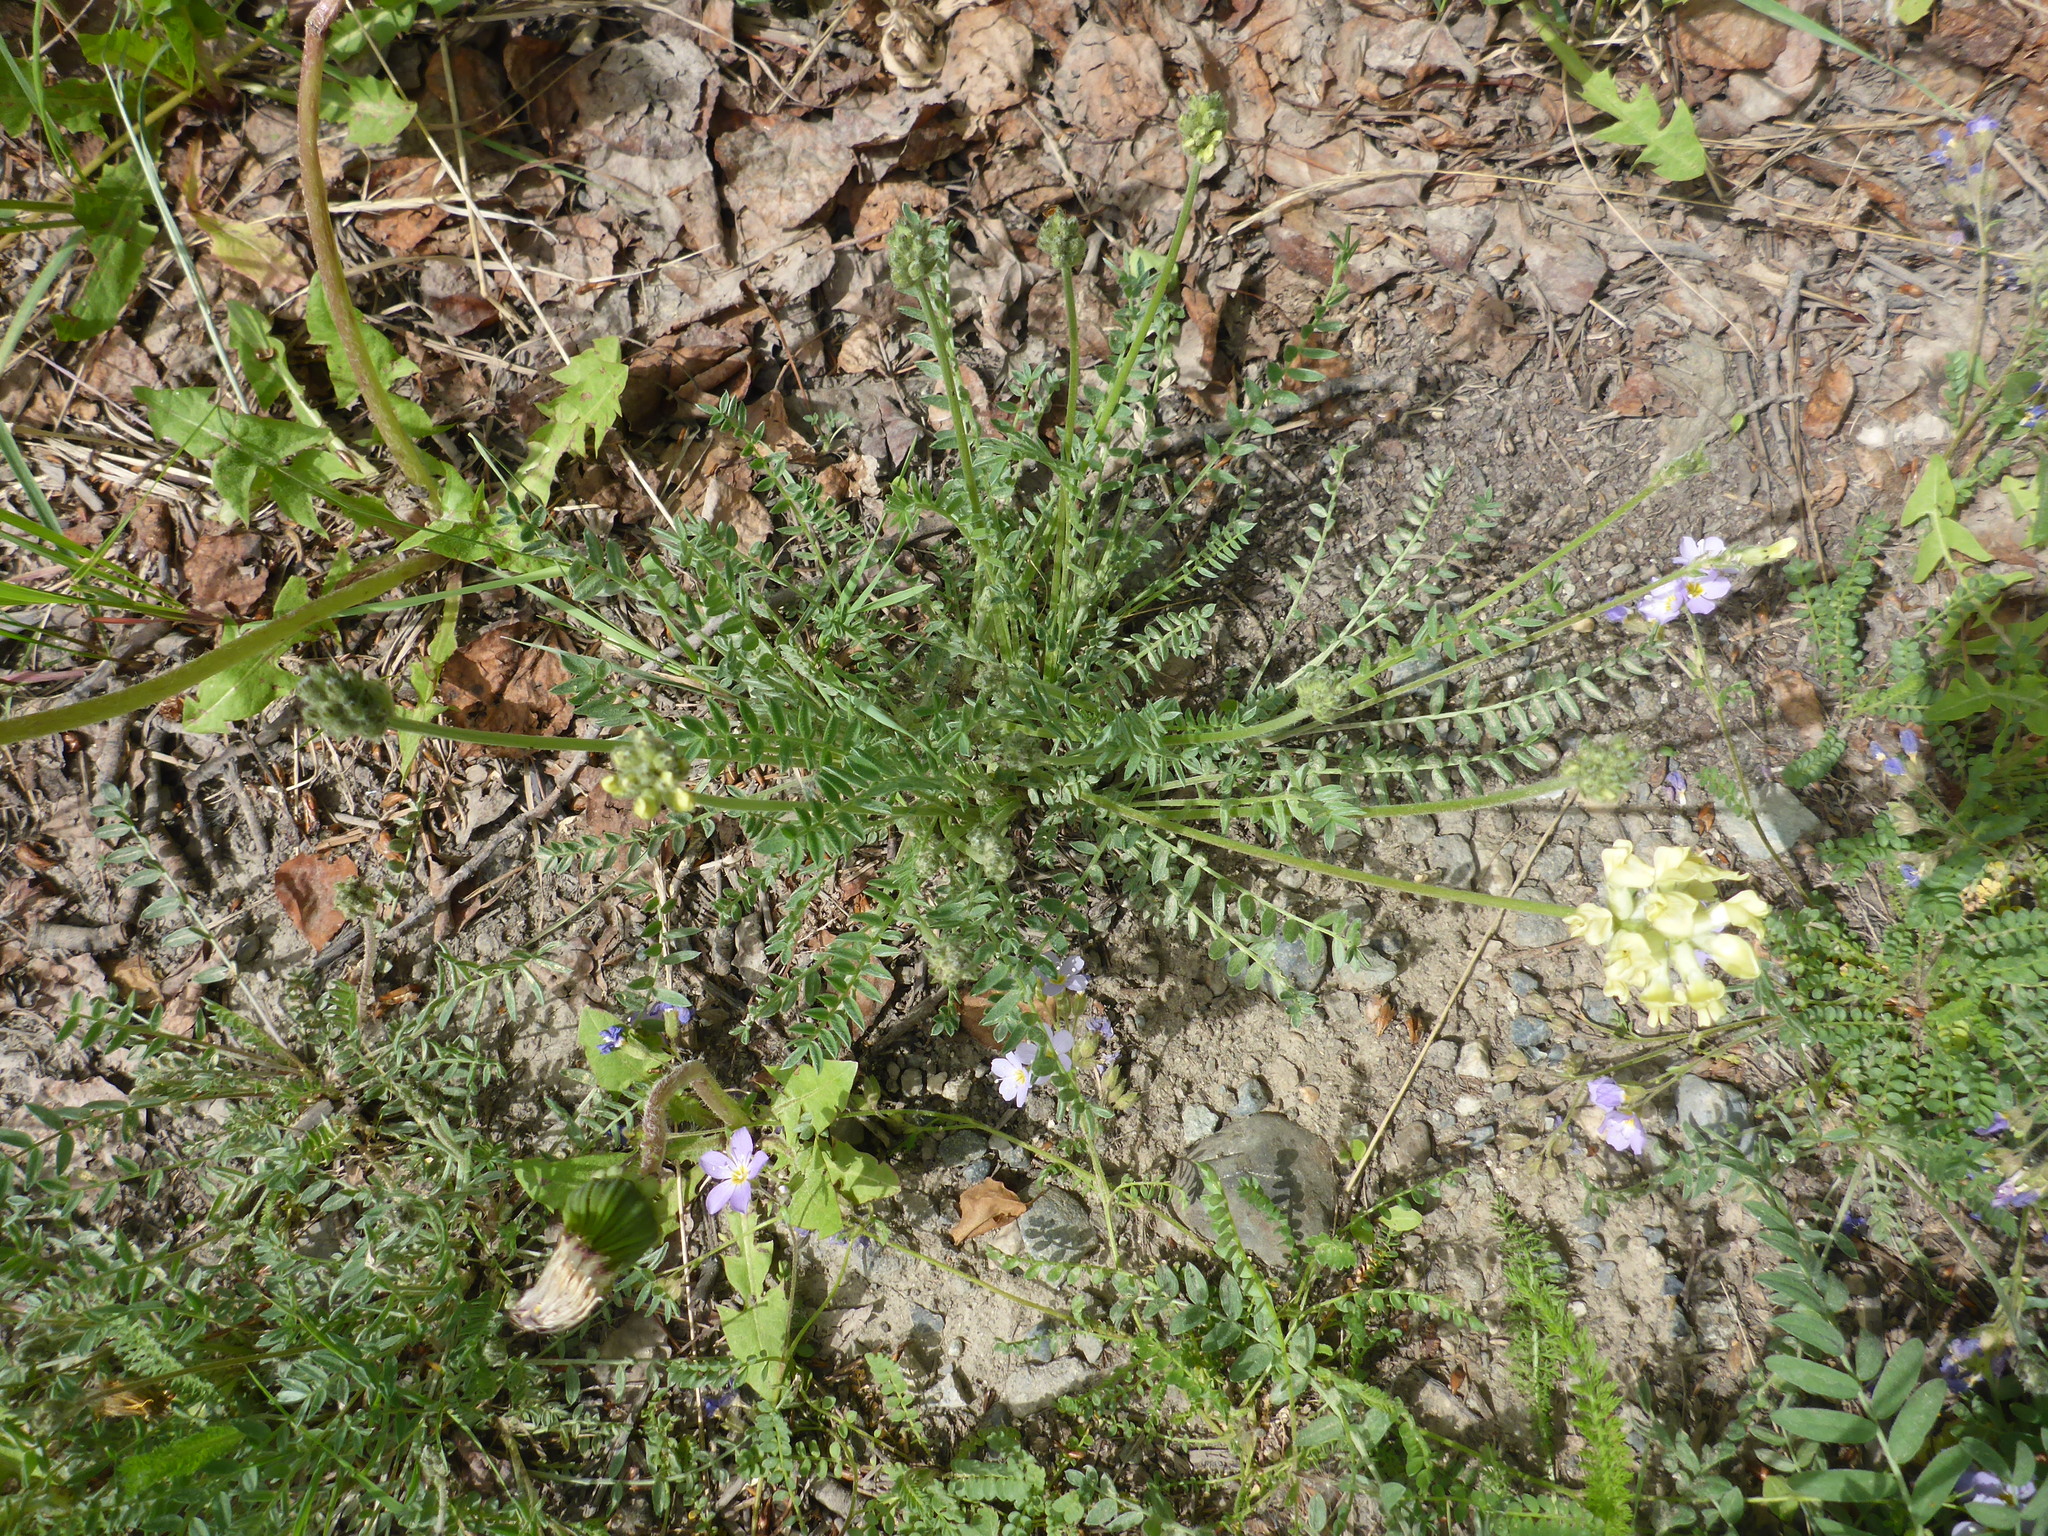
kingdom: Plantae
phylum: Tracheophyta
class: Magnoliopsida
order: Fabales
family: Fabaceae
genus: Oxytropis
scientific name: Oxytropis campestris
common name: Field locoweed
